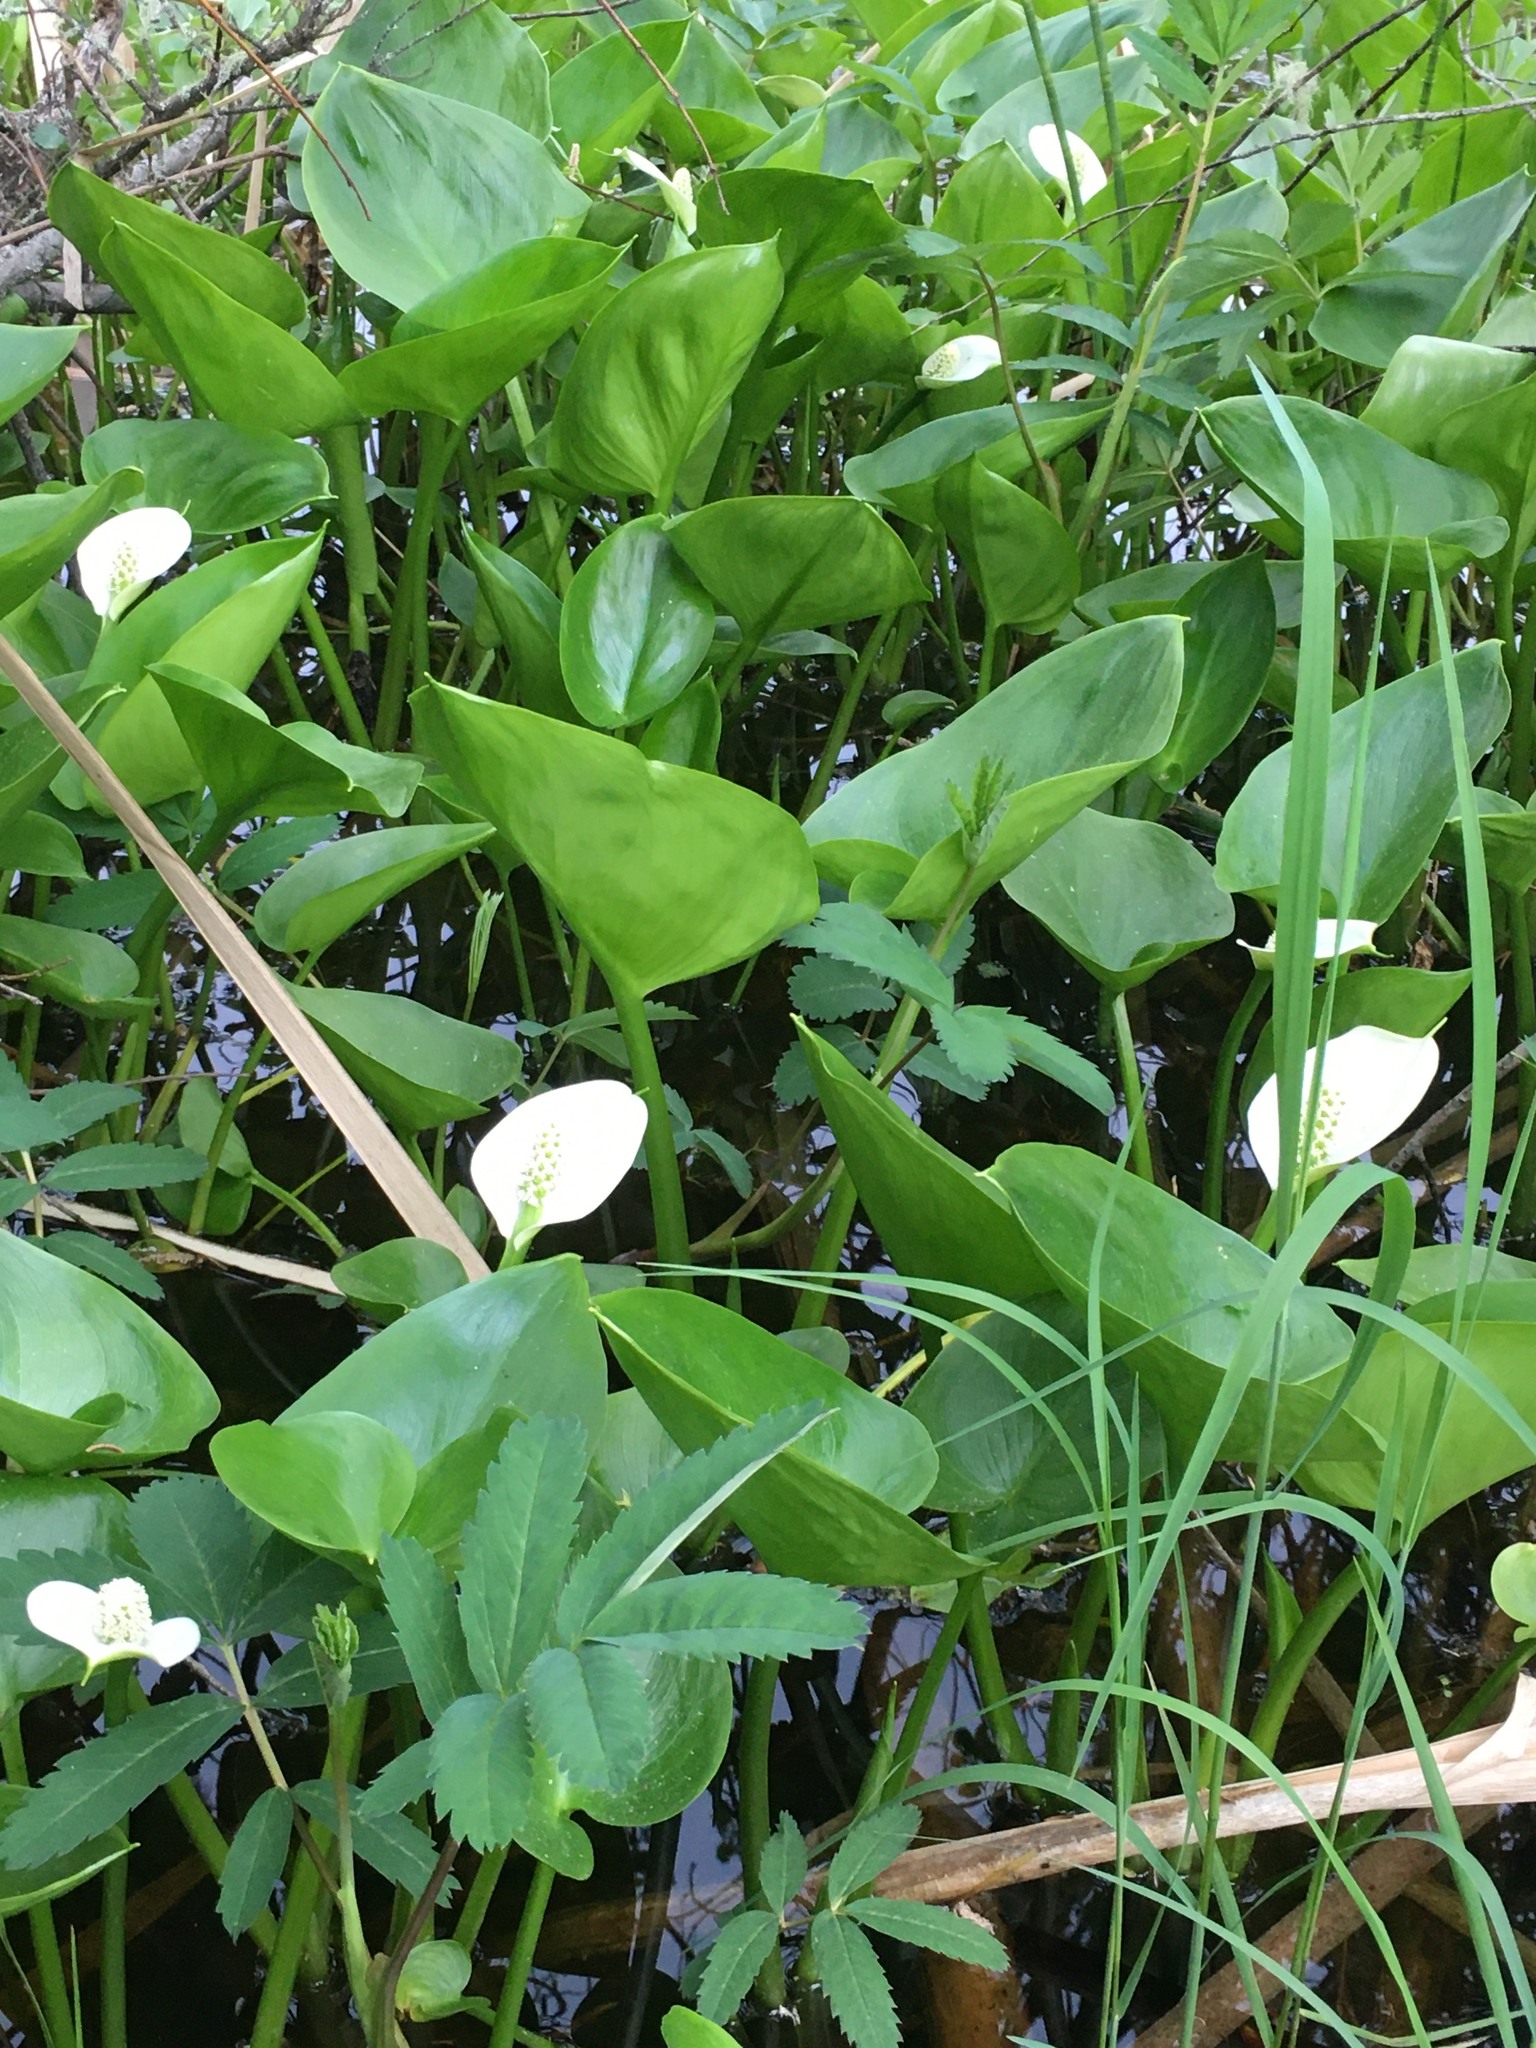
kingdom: Plantae
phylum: Tracheophyta
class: Liliopsida
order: Alismatales
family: Araceae
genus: Calla
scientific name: Calla palustris
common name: Bog arum
